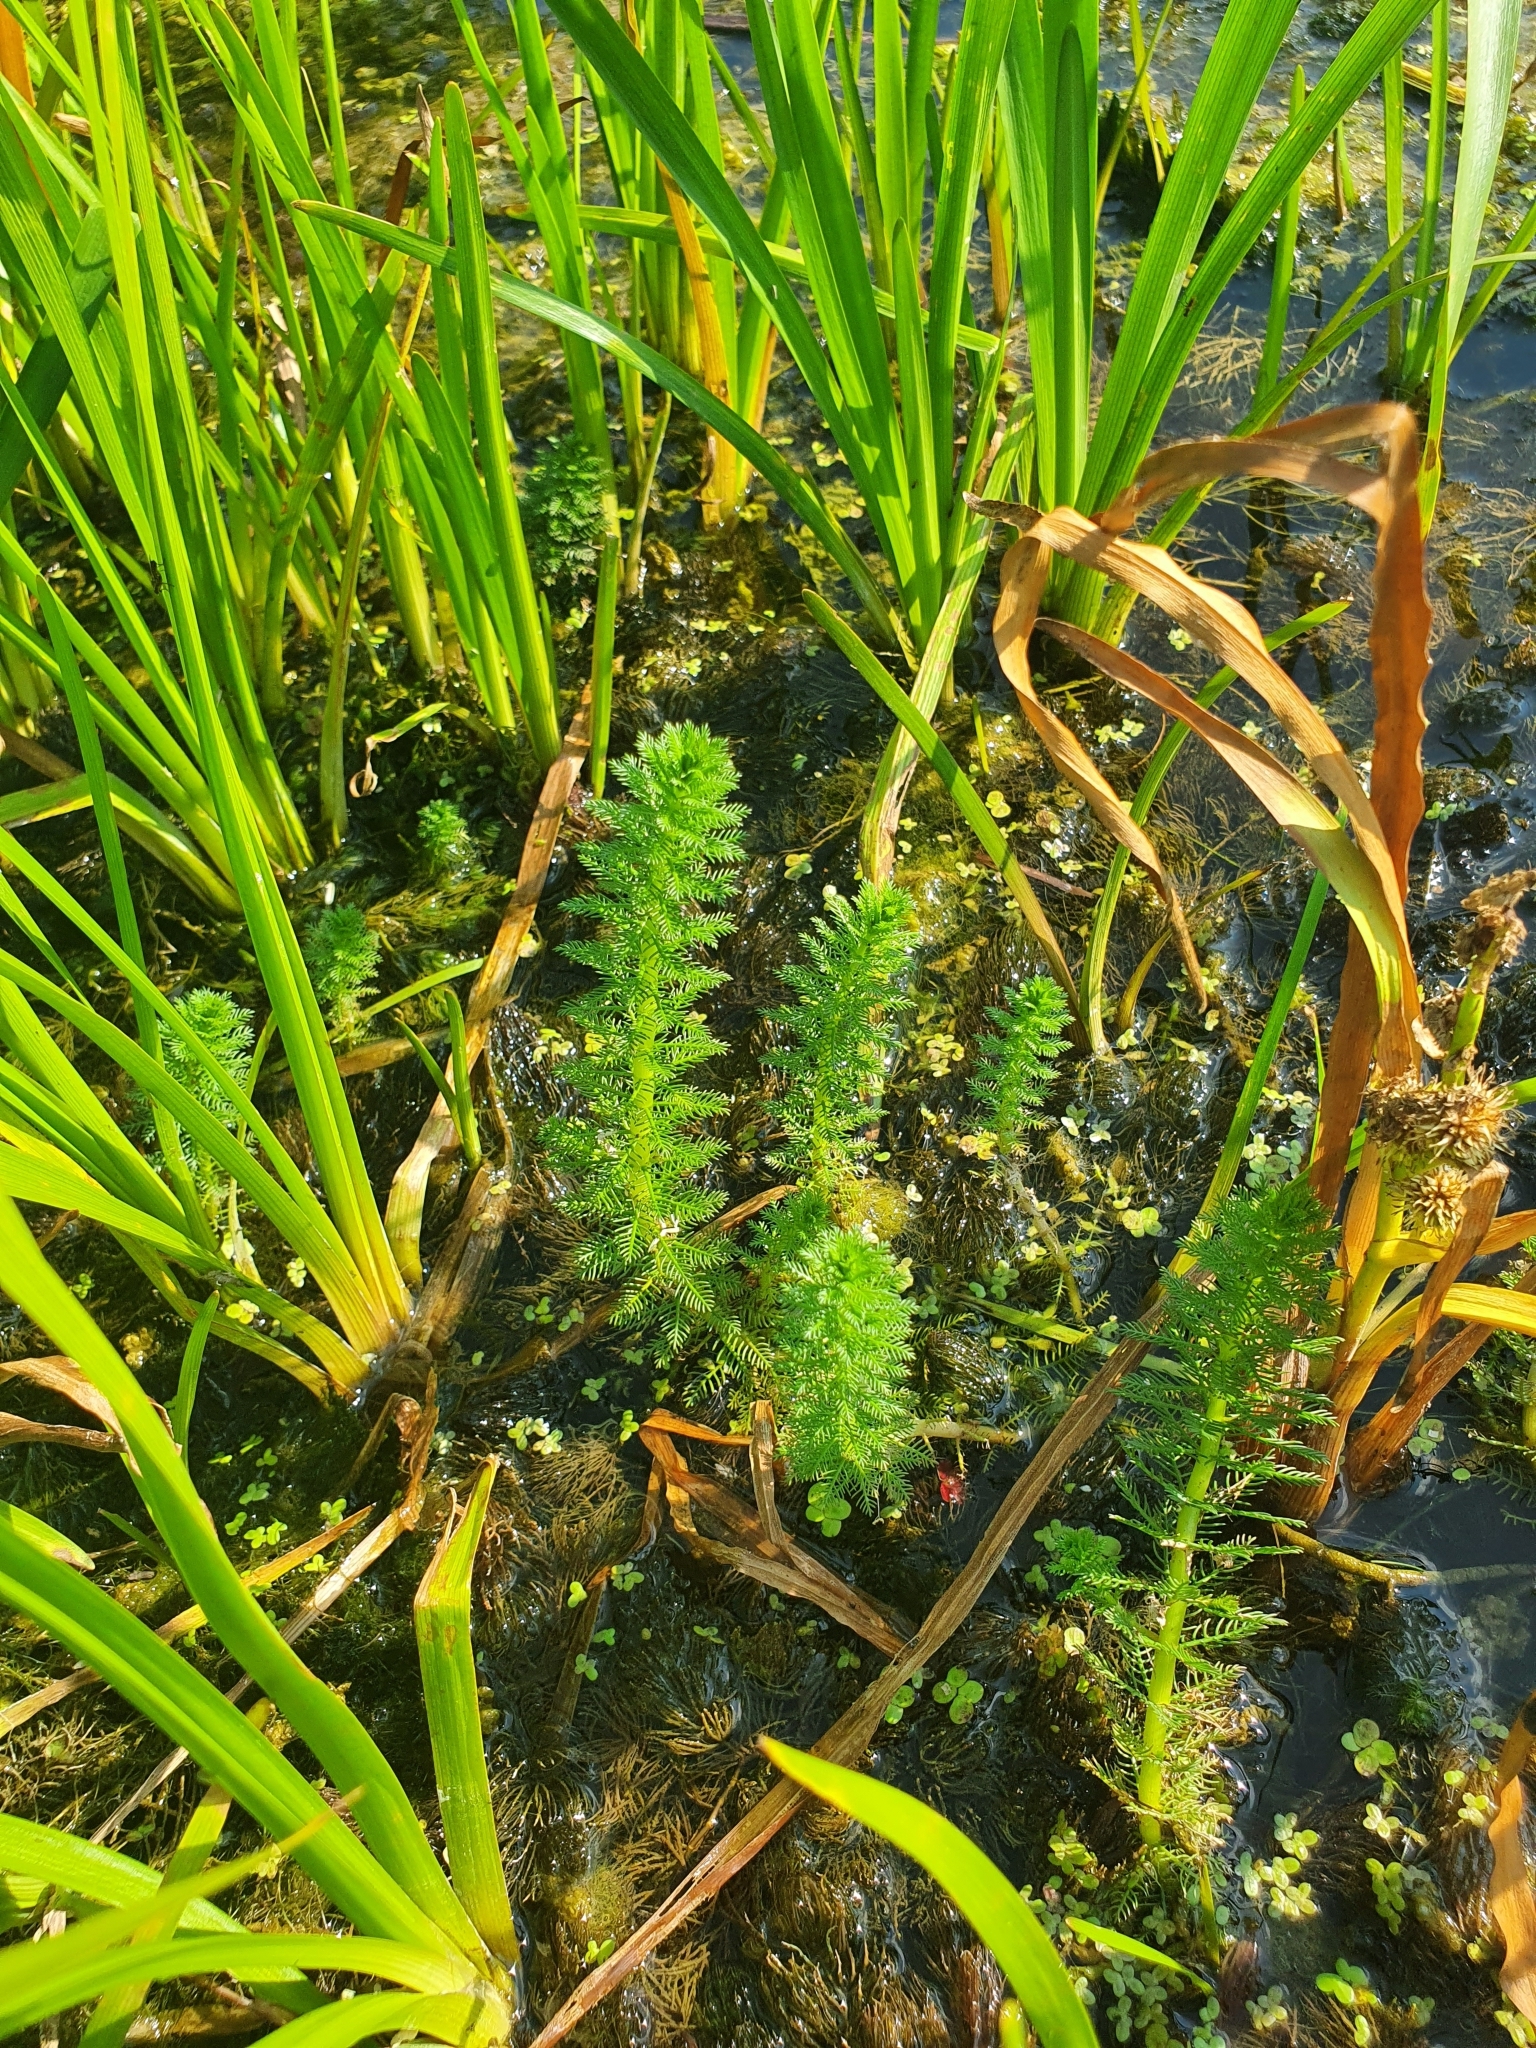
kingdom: Plantae
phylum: Tracheophyta
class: Magnoliopsida
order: Saxifragales
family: Haloragaceae
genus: Myriophyllum
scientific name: Myriophyllum verticillatum
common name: Whorled water-milfoil
